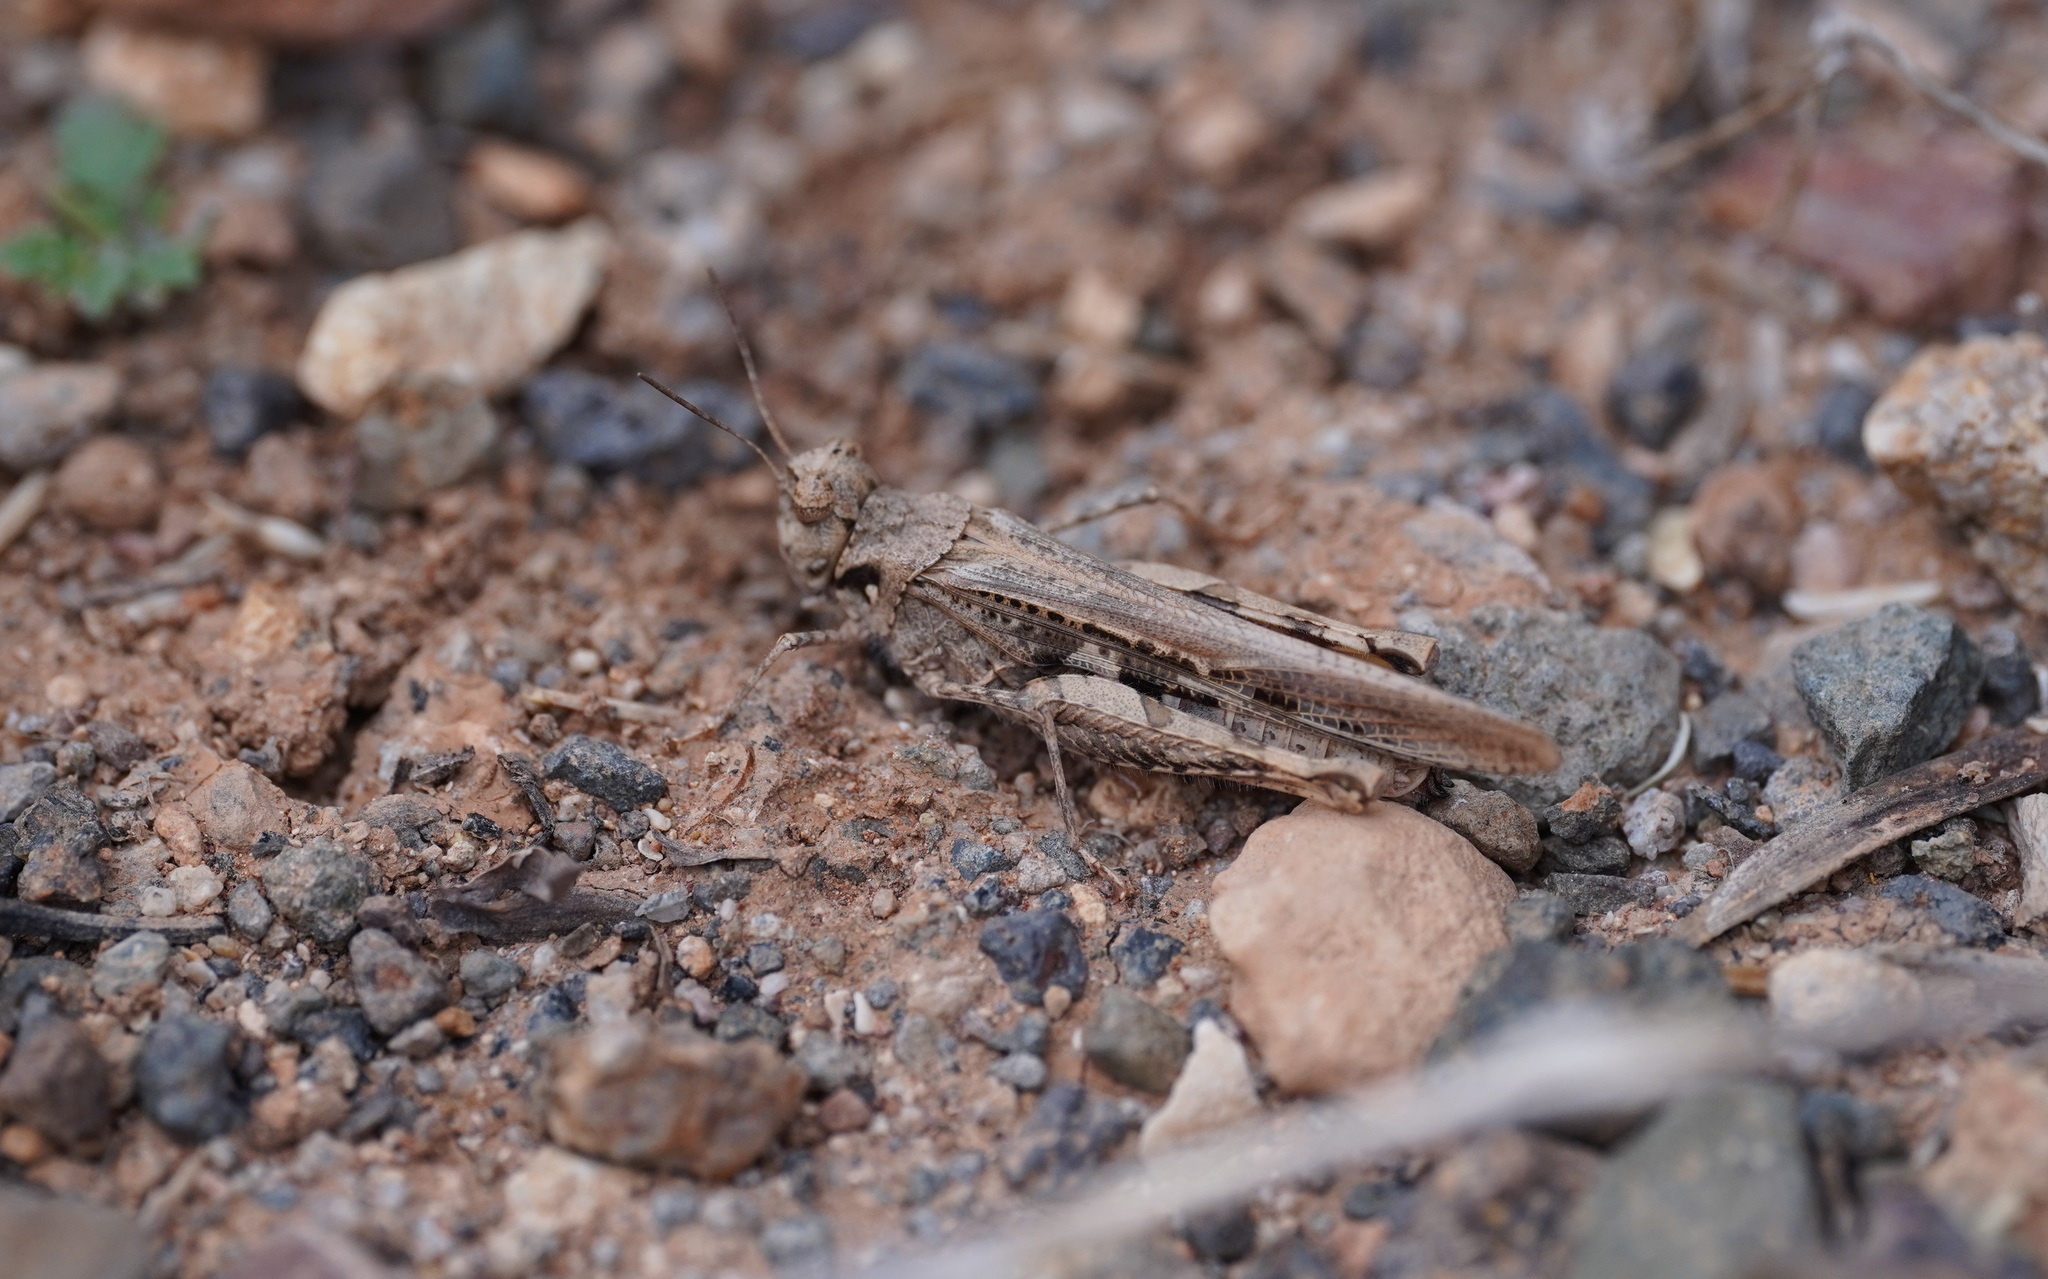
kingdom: Animalia
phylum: Arthropoda
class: Insecta
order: Orthoptera
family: Acrididae
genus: Acrotylus
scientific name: Acrotylus insubricus
